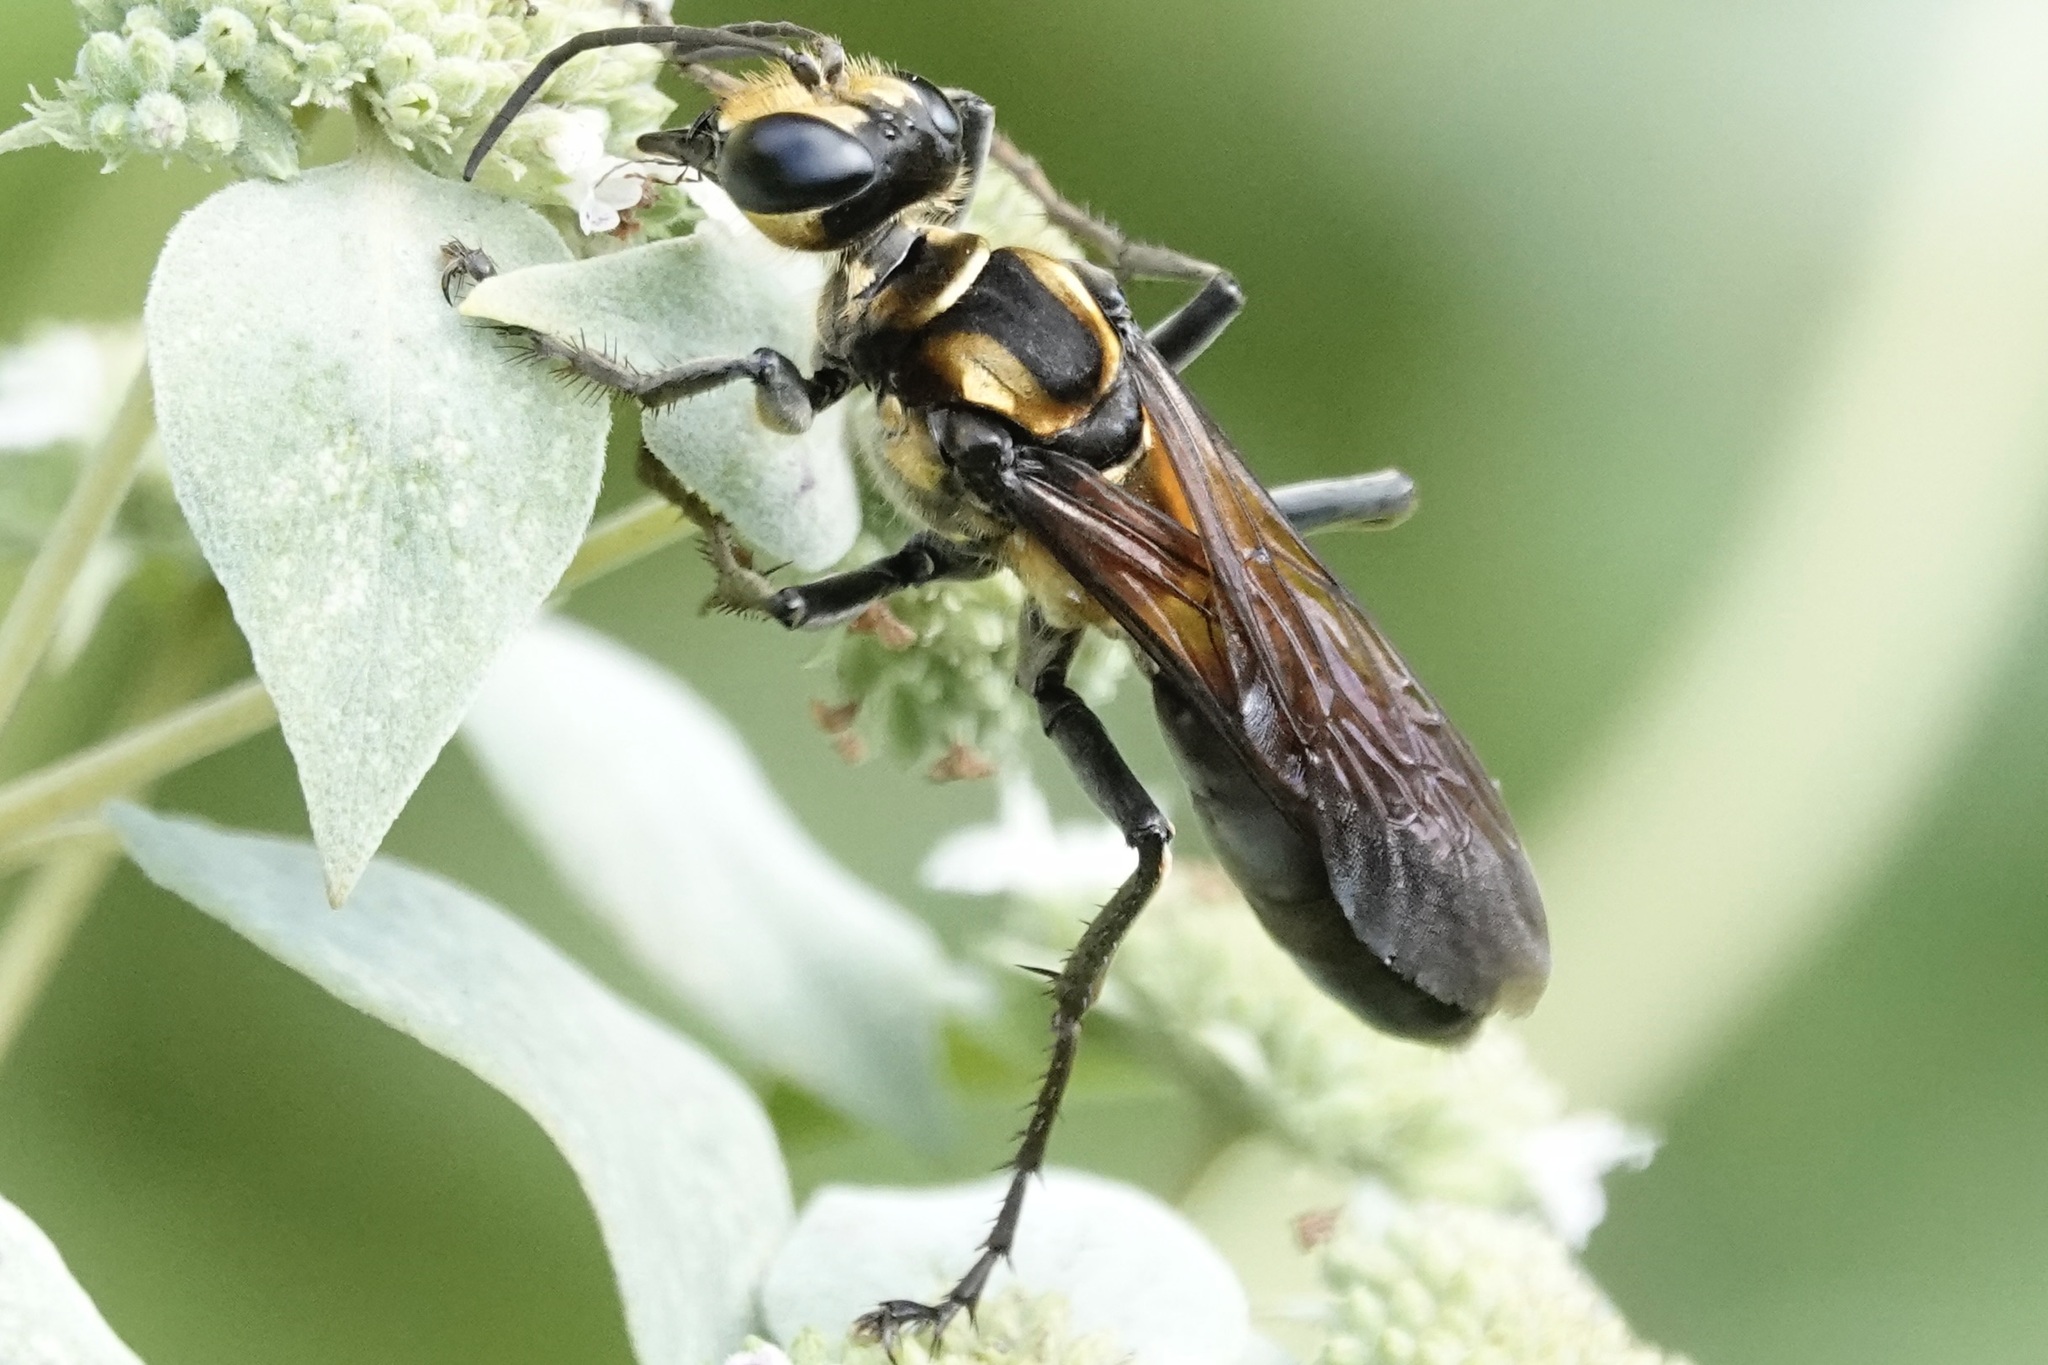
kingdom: Animalia
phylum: Arthropoda
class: Insecta
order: Hymenoptera
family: Sphecidae
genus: Sphex
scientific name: Sphex habenus
